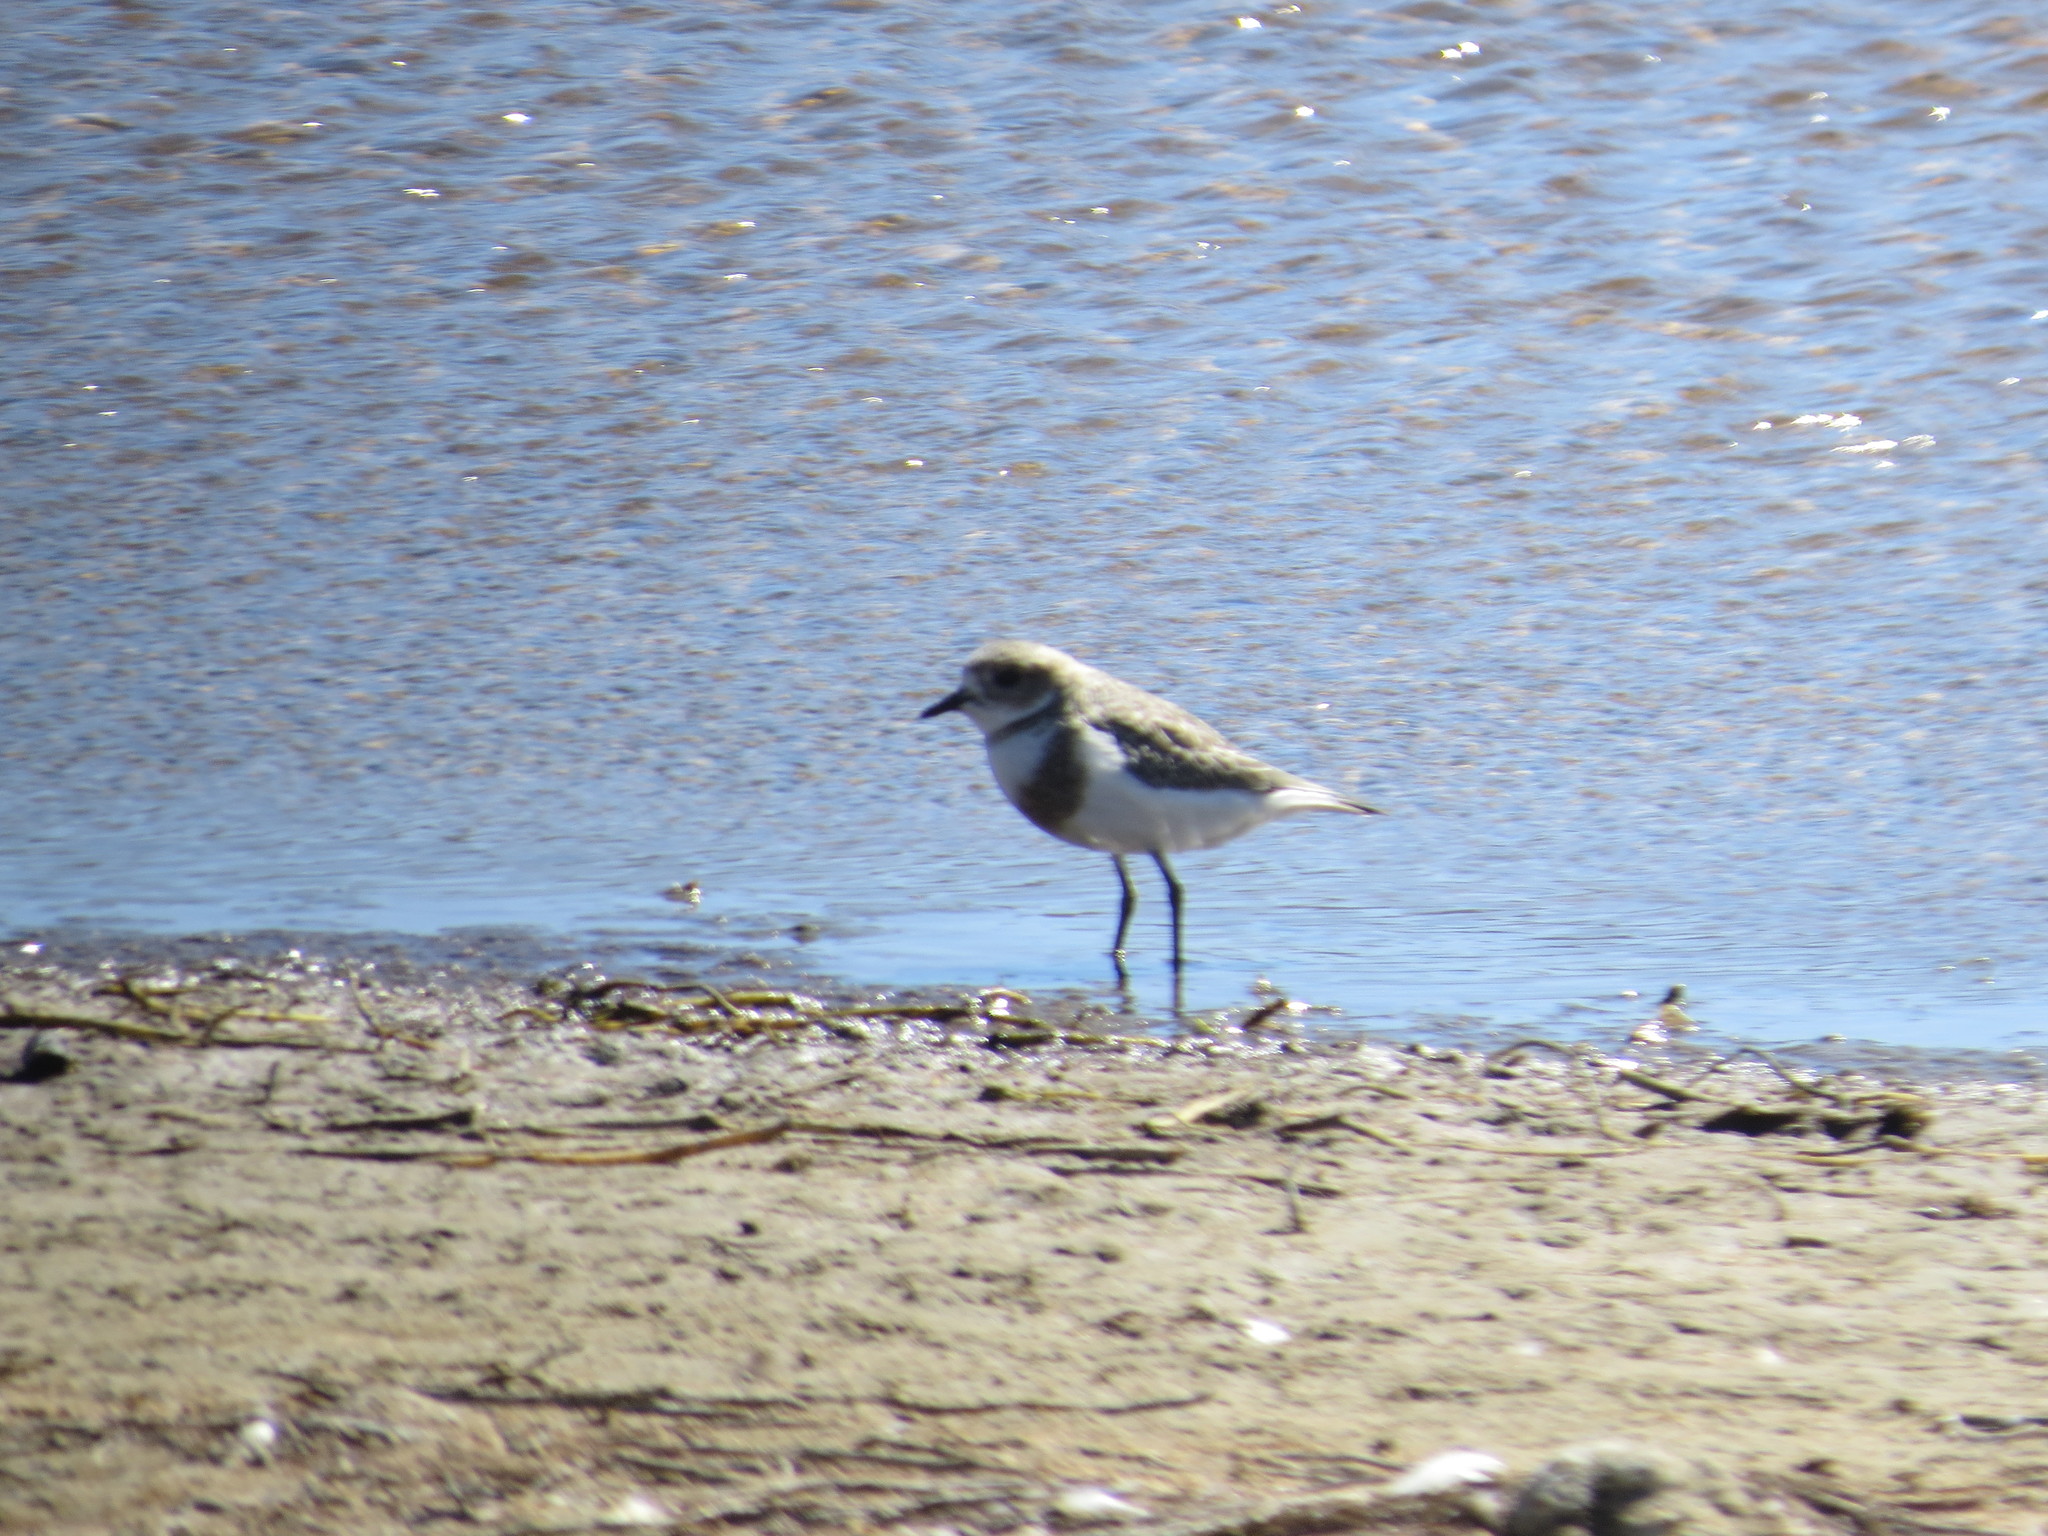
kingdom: Animalia
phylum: Chordata
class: Aves
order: Charadriiformes
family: Charadriidae
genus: Anarhynchus
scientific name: Anarhynchus
